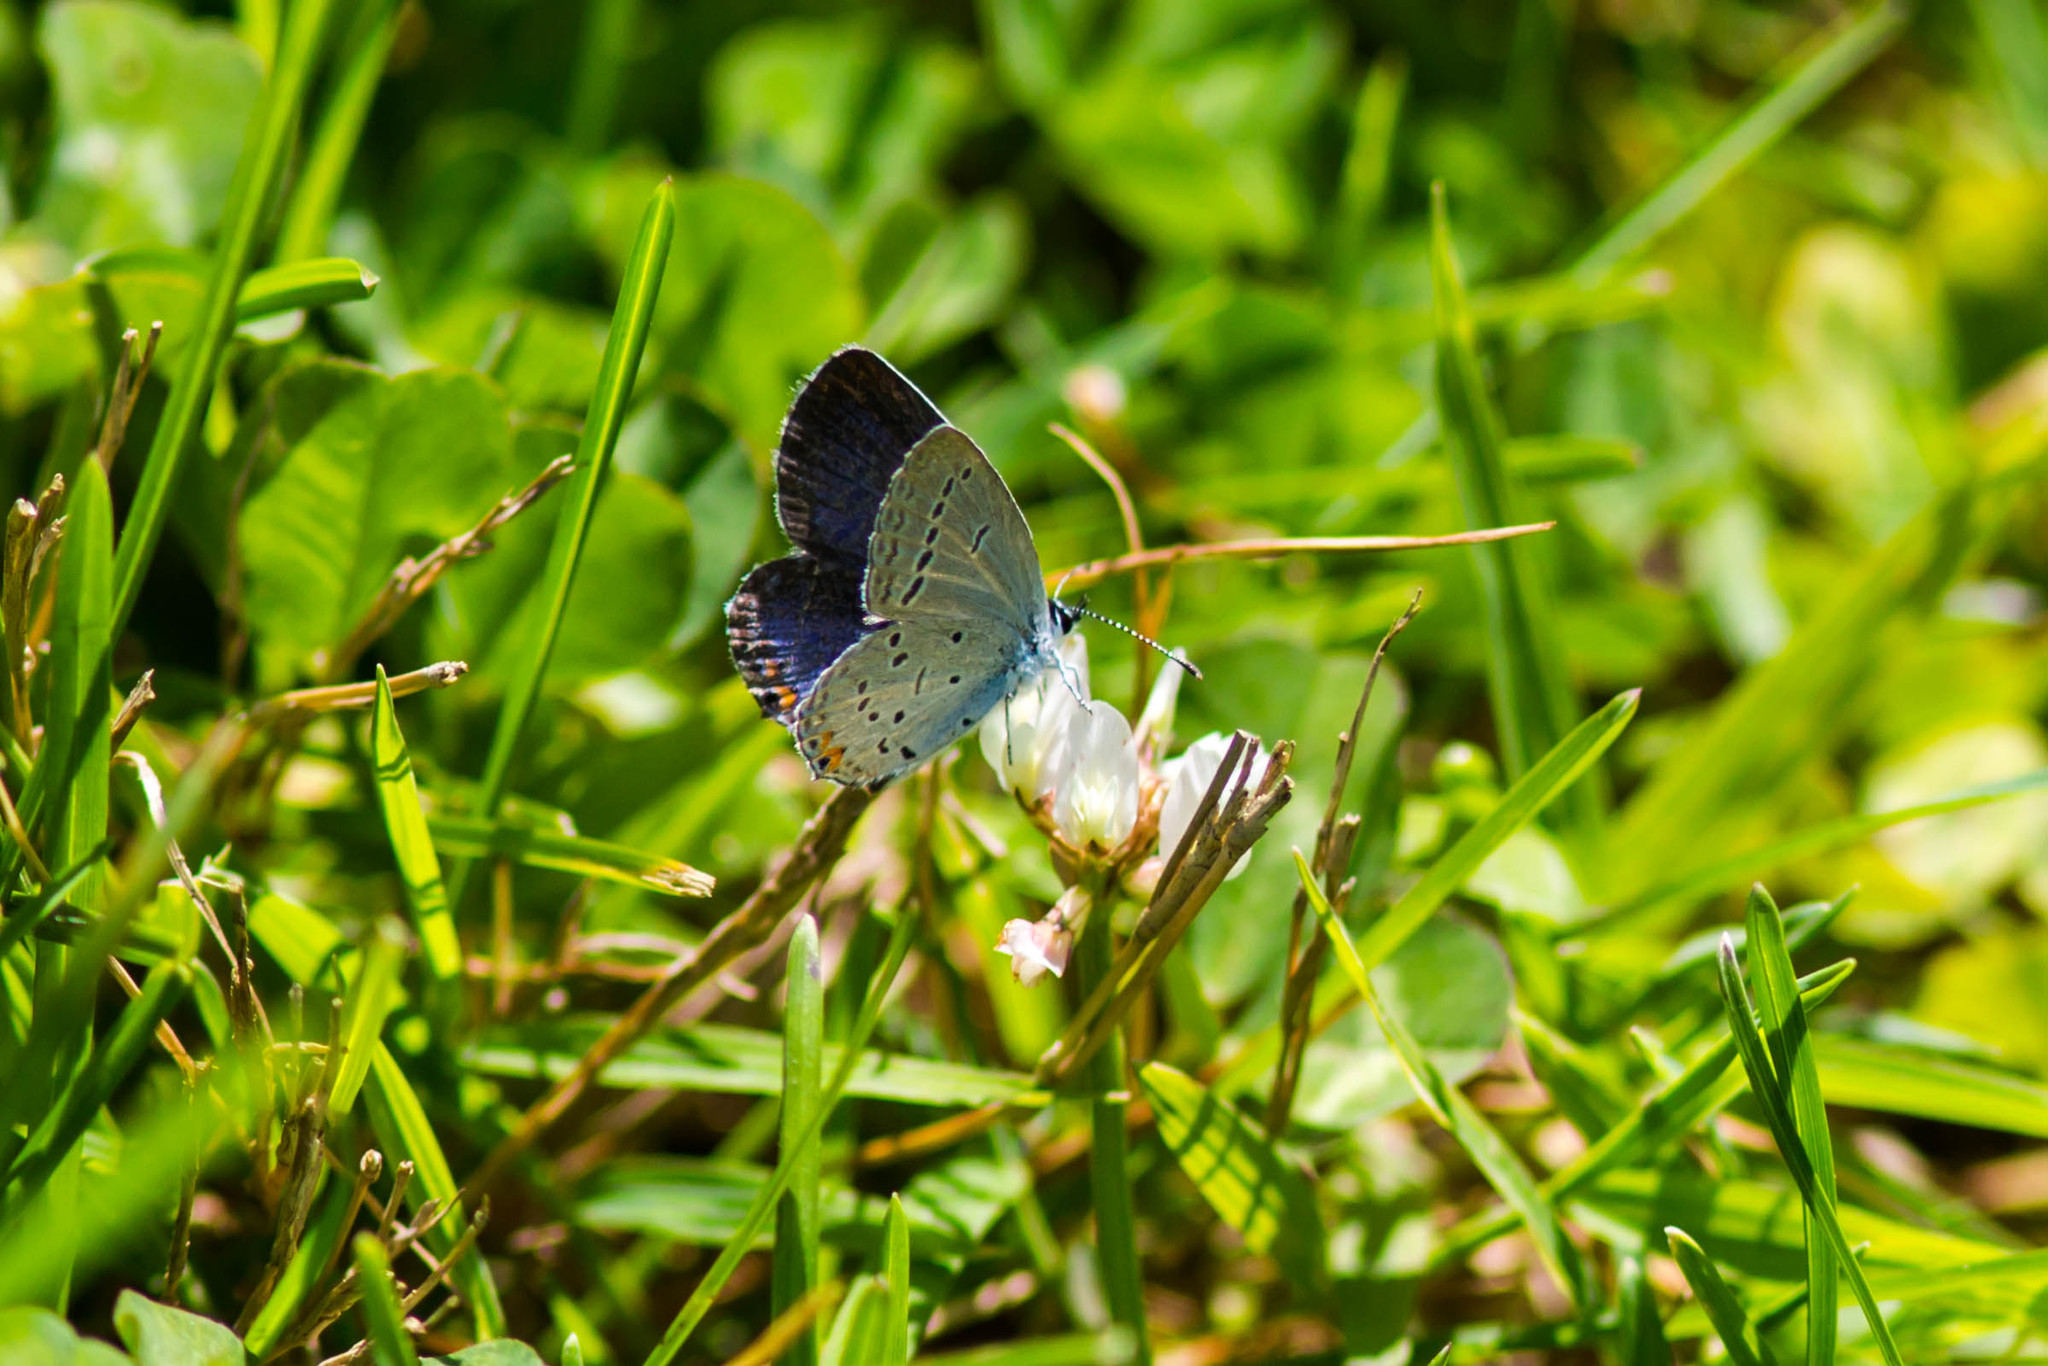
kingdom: Animalia
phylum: Arthropoda
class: Insecta
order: Lepidoptera
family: Lycaenidae
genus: Elkalyce
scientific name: Elkalyce comyntas
